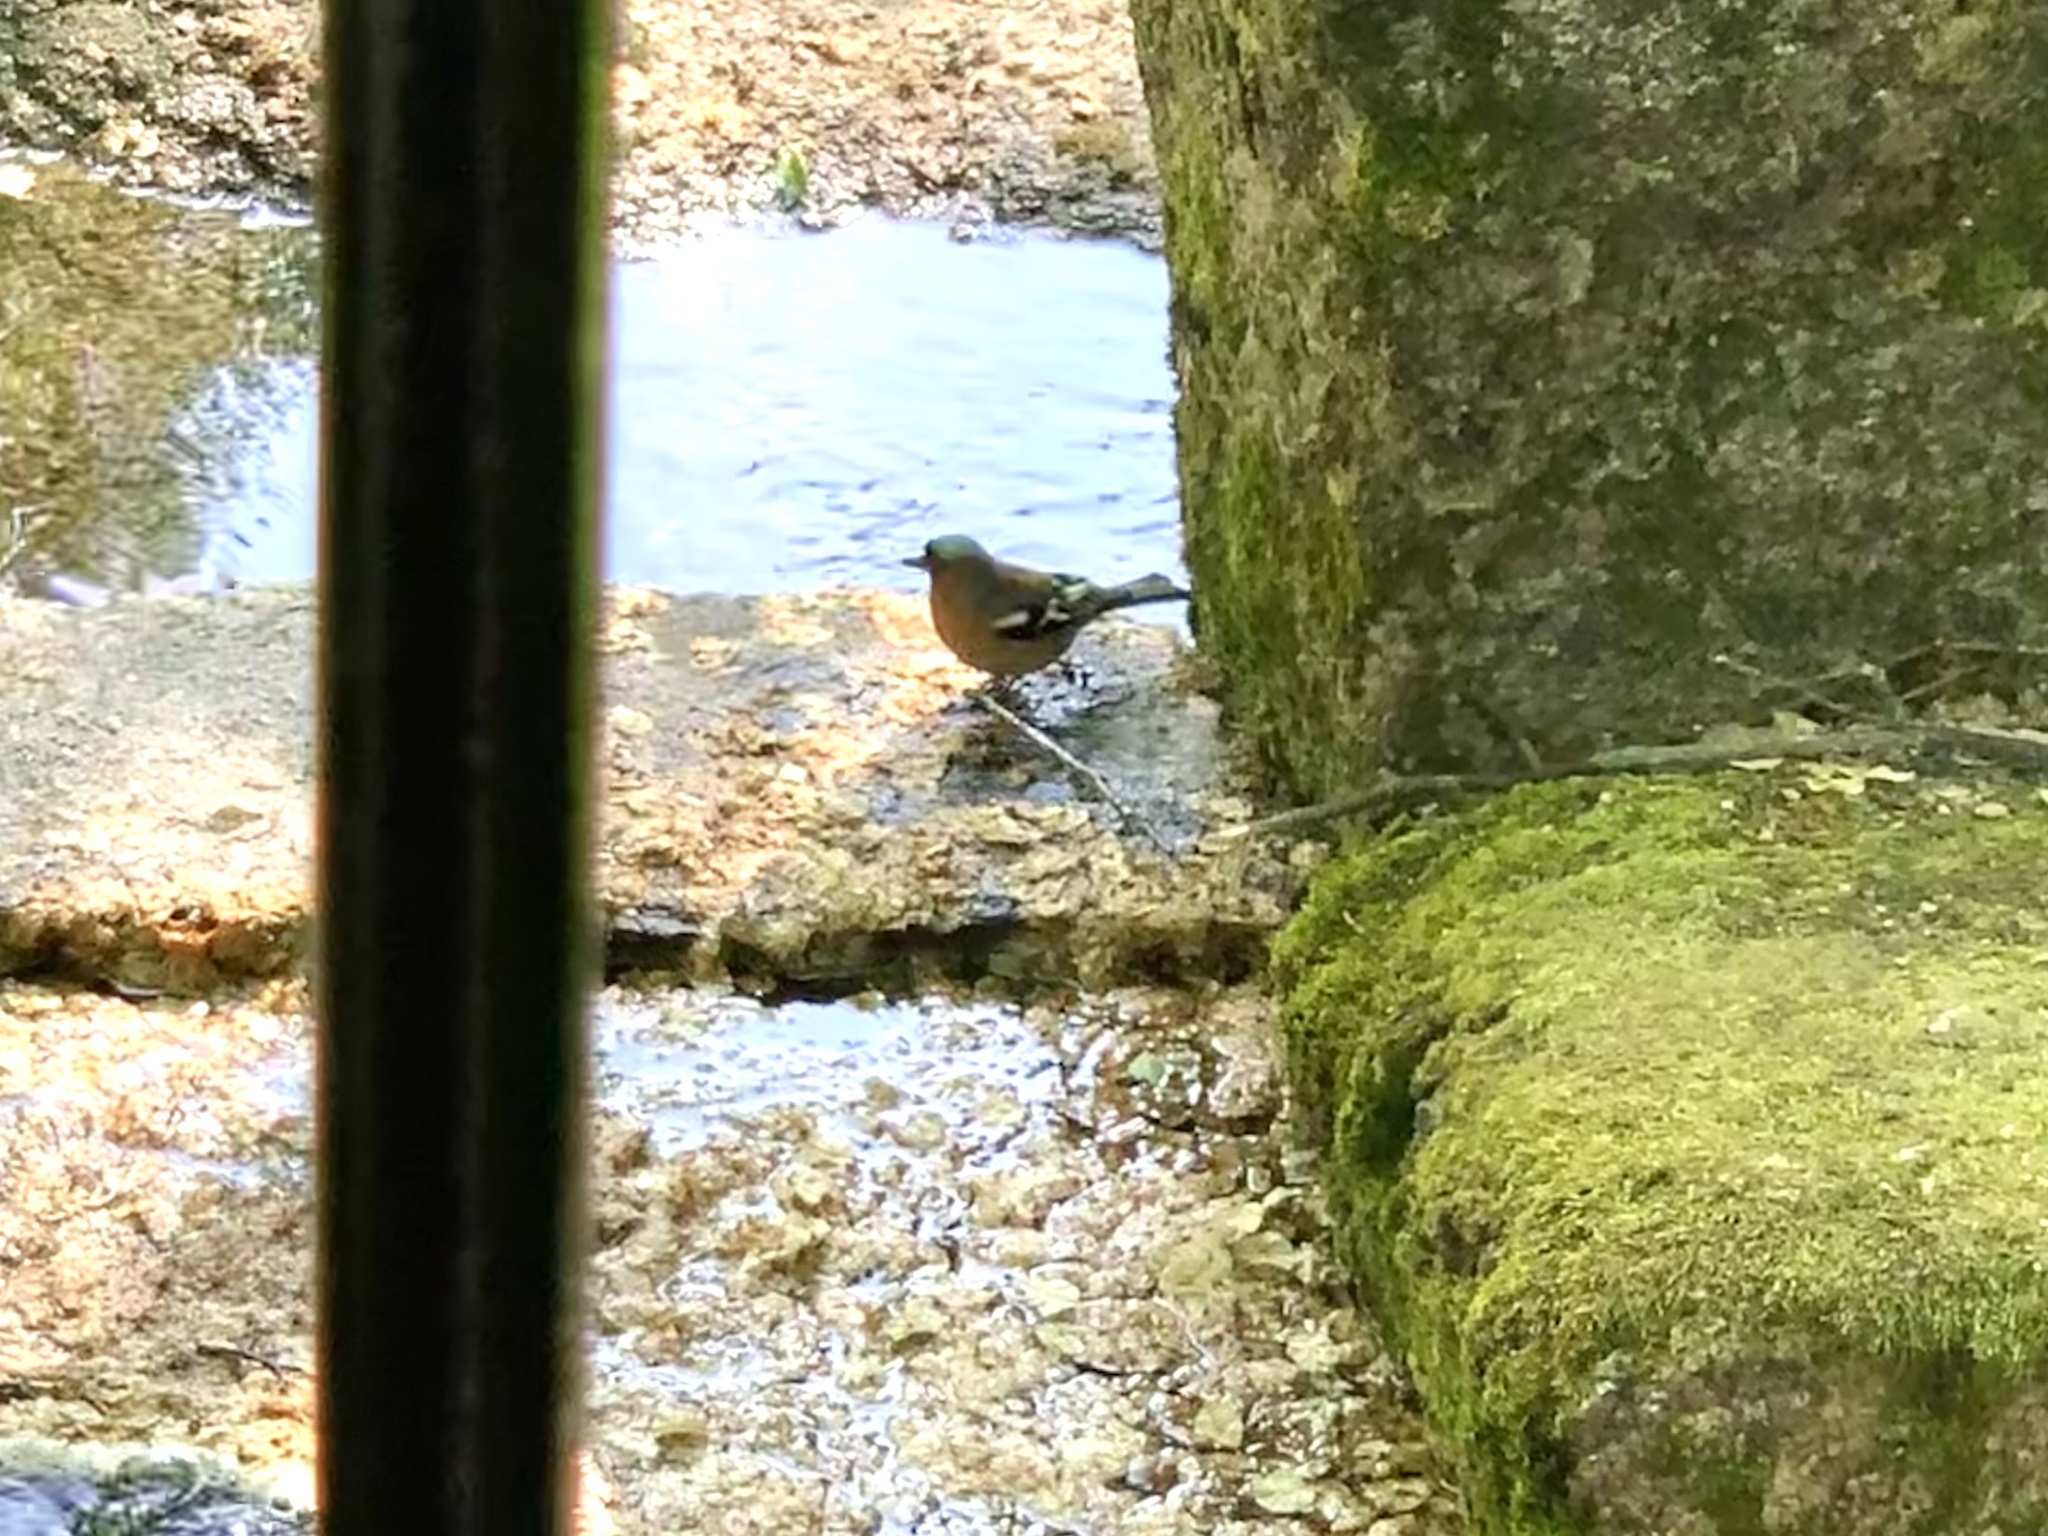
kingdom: Animalia
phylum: Chordata
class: Aves
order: Passeriformes
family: Fringillidae
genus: Fringilla
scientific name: Fringilla coelebs
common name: Common chaffinch
